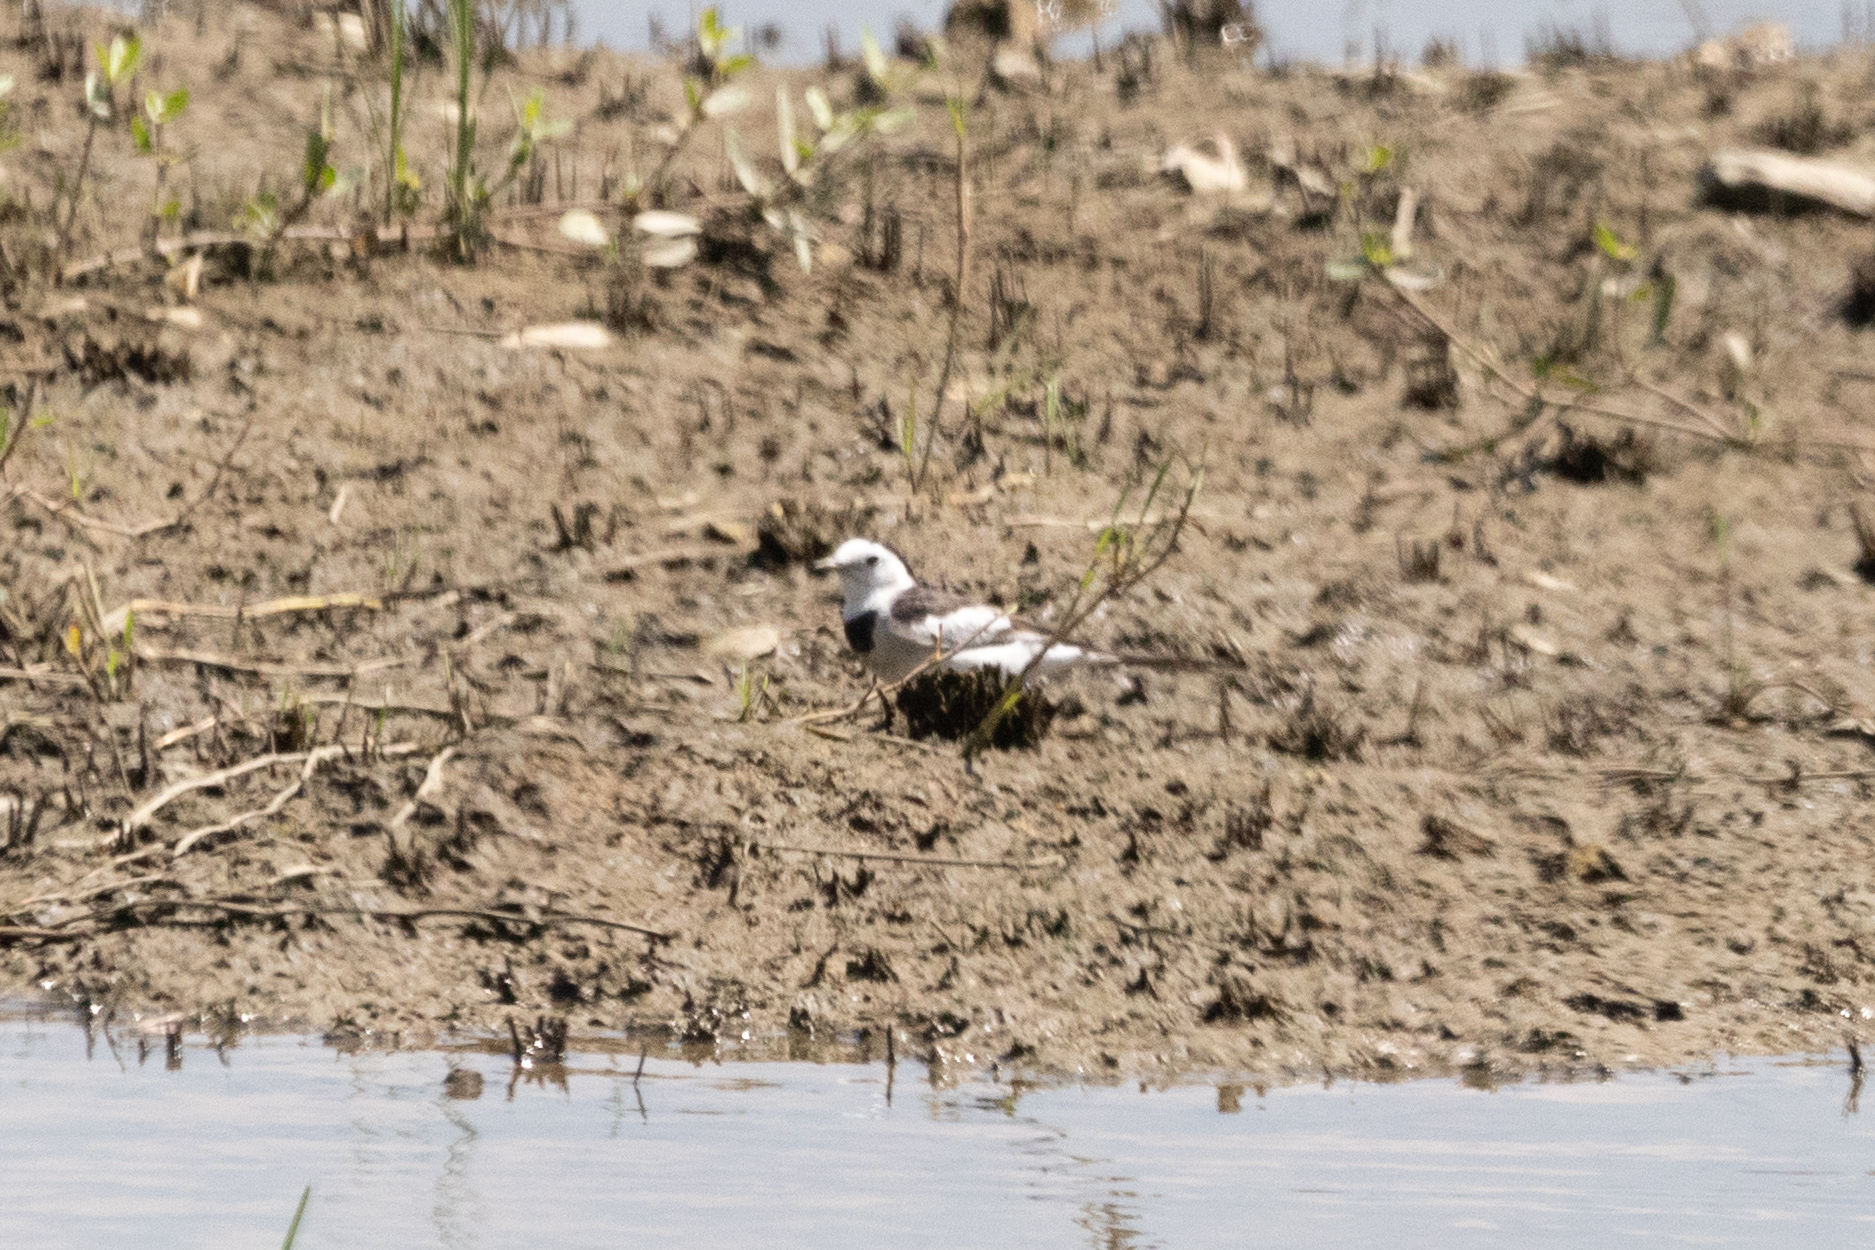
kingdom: Animalia
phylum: Chordata
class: Aves
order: Passeriformes
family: Motacillidae
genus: Motacilla
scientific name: Motacilla alba
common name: White wagtail
